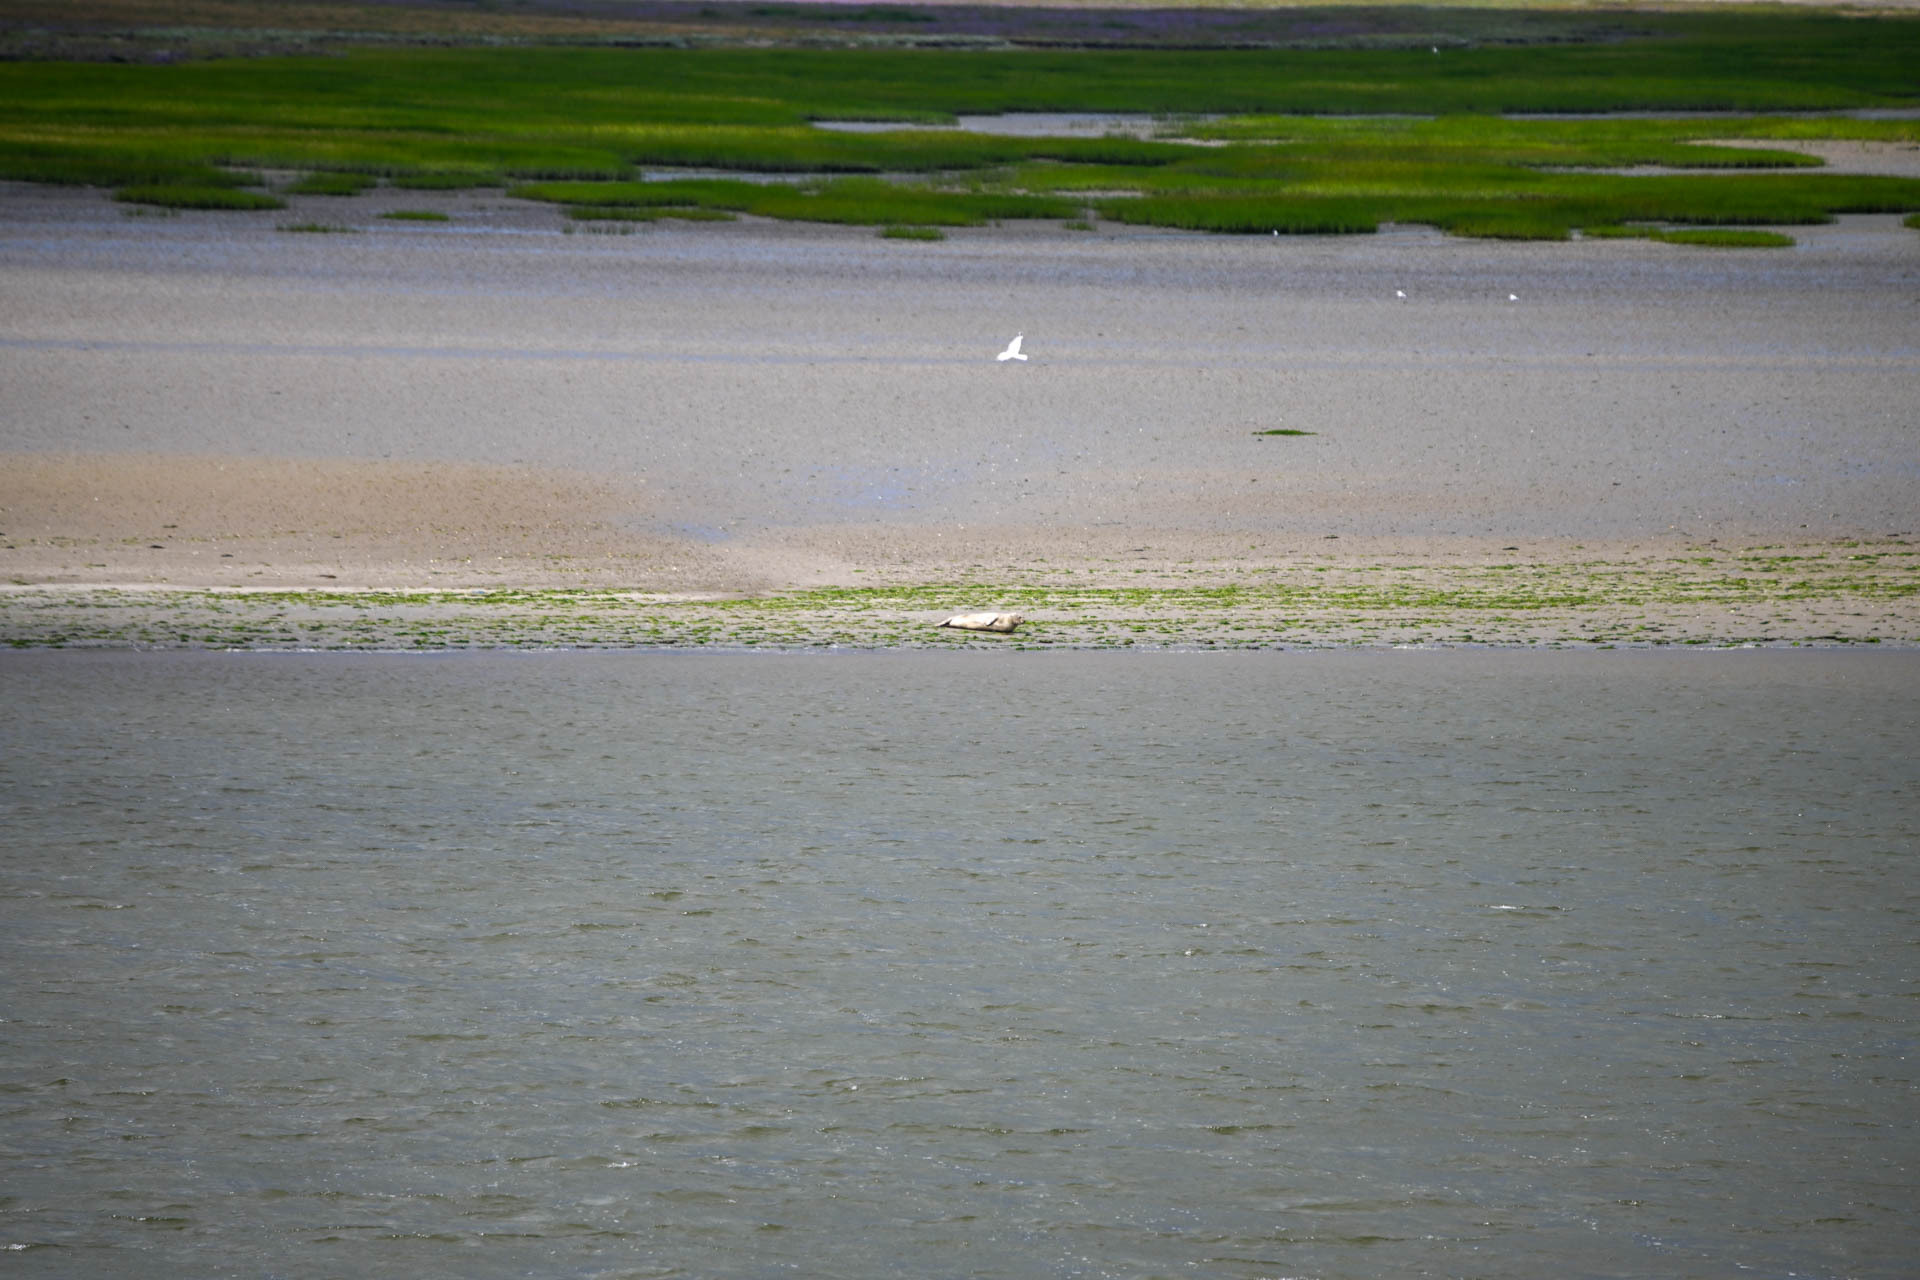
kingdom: Animalia
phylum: Chordata
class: Mammalia
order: Carnivora
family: Phocidae
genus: Phoca
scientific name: Phoca vitulina
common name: Harbor seal
